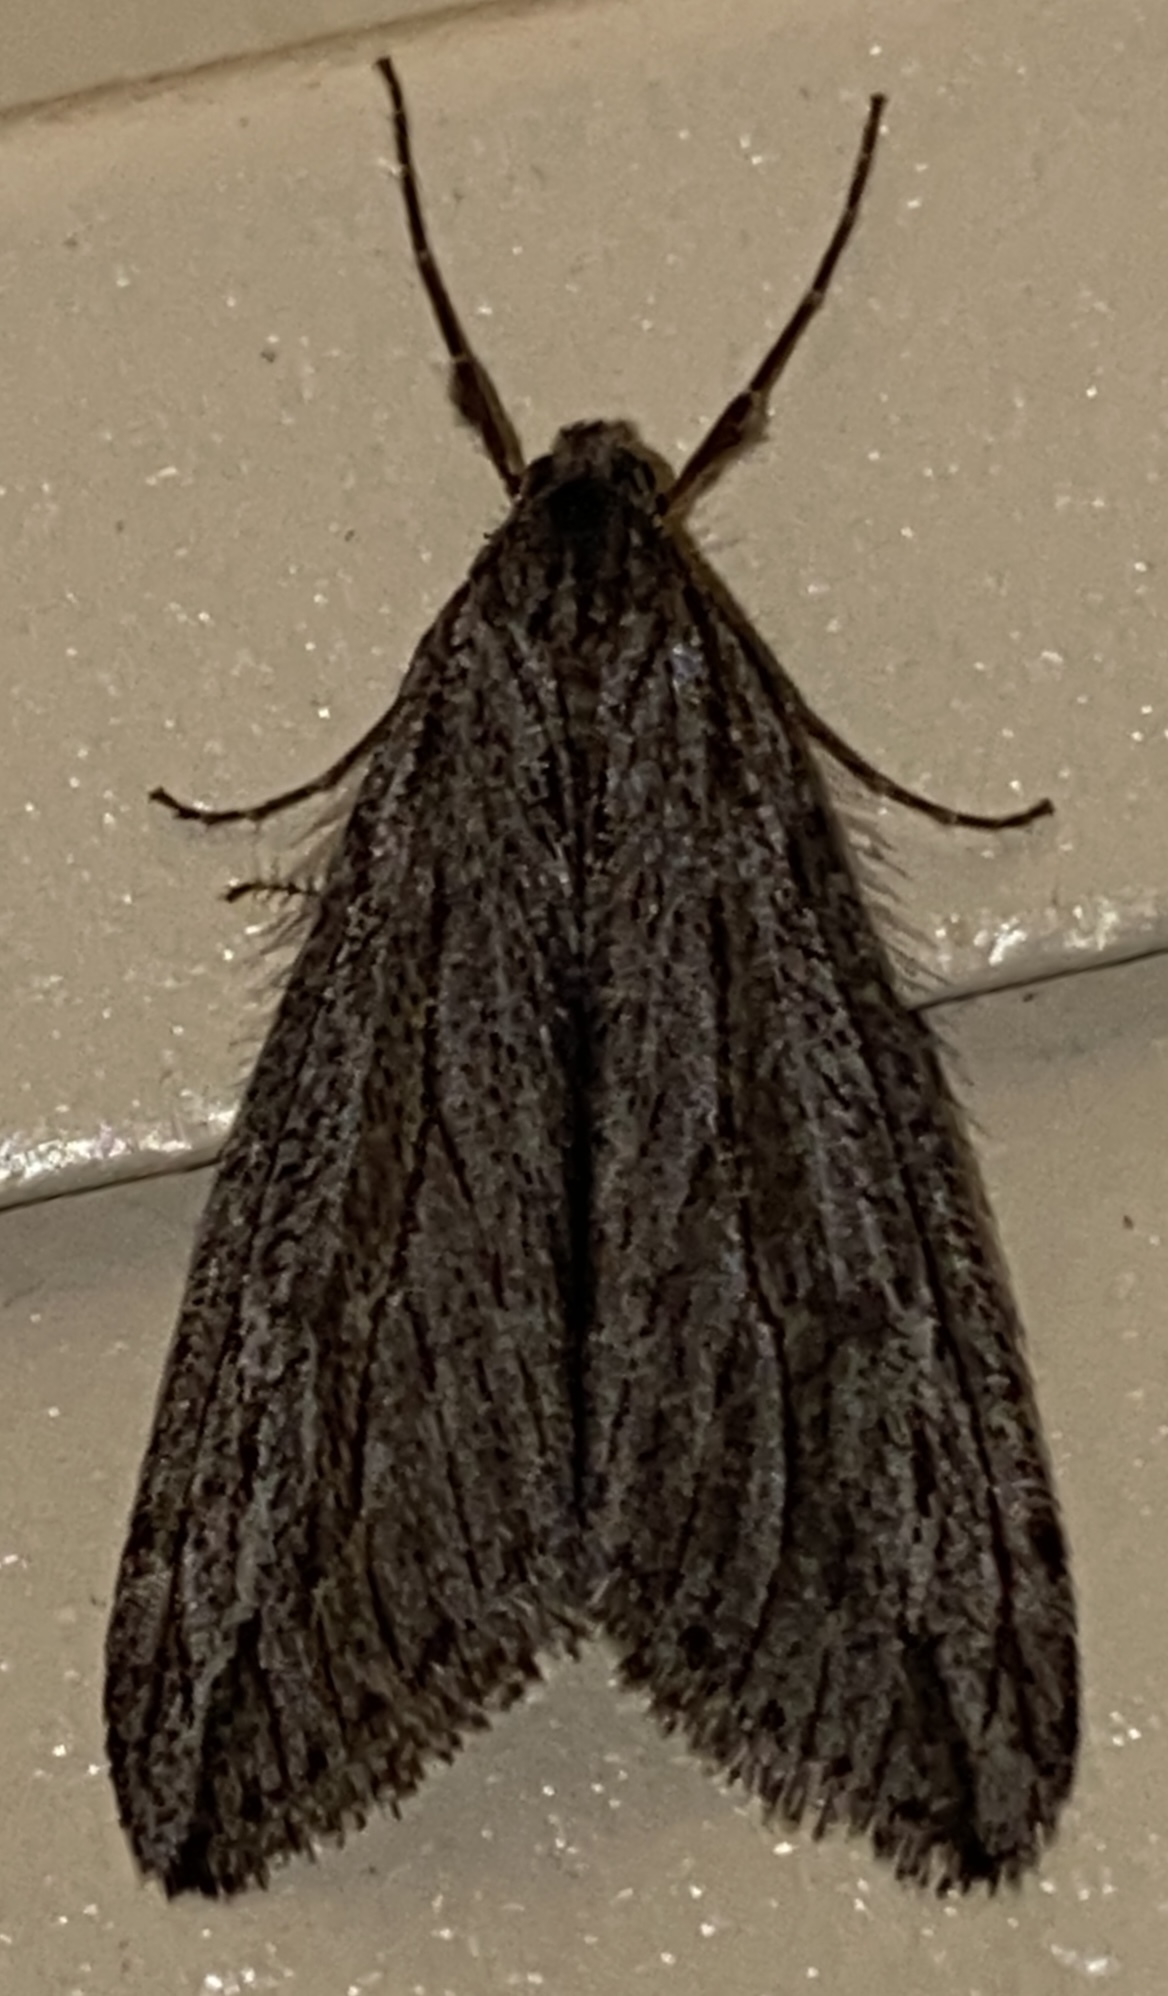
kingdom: Animalia
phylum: Arthropoda
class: Insecta
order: Lepidoptera
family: Geometridae
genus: Paleacrita
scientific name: Paleacrita longiciliata
